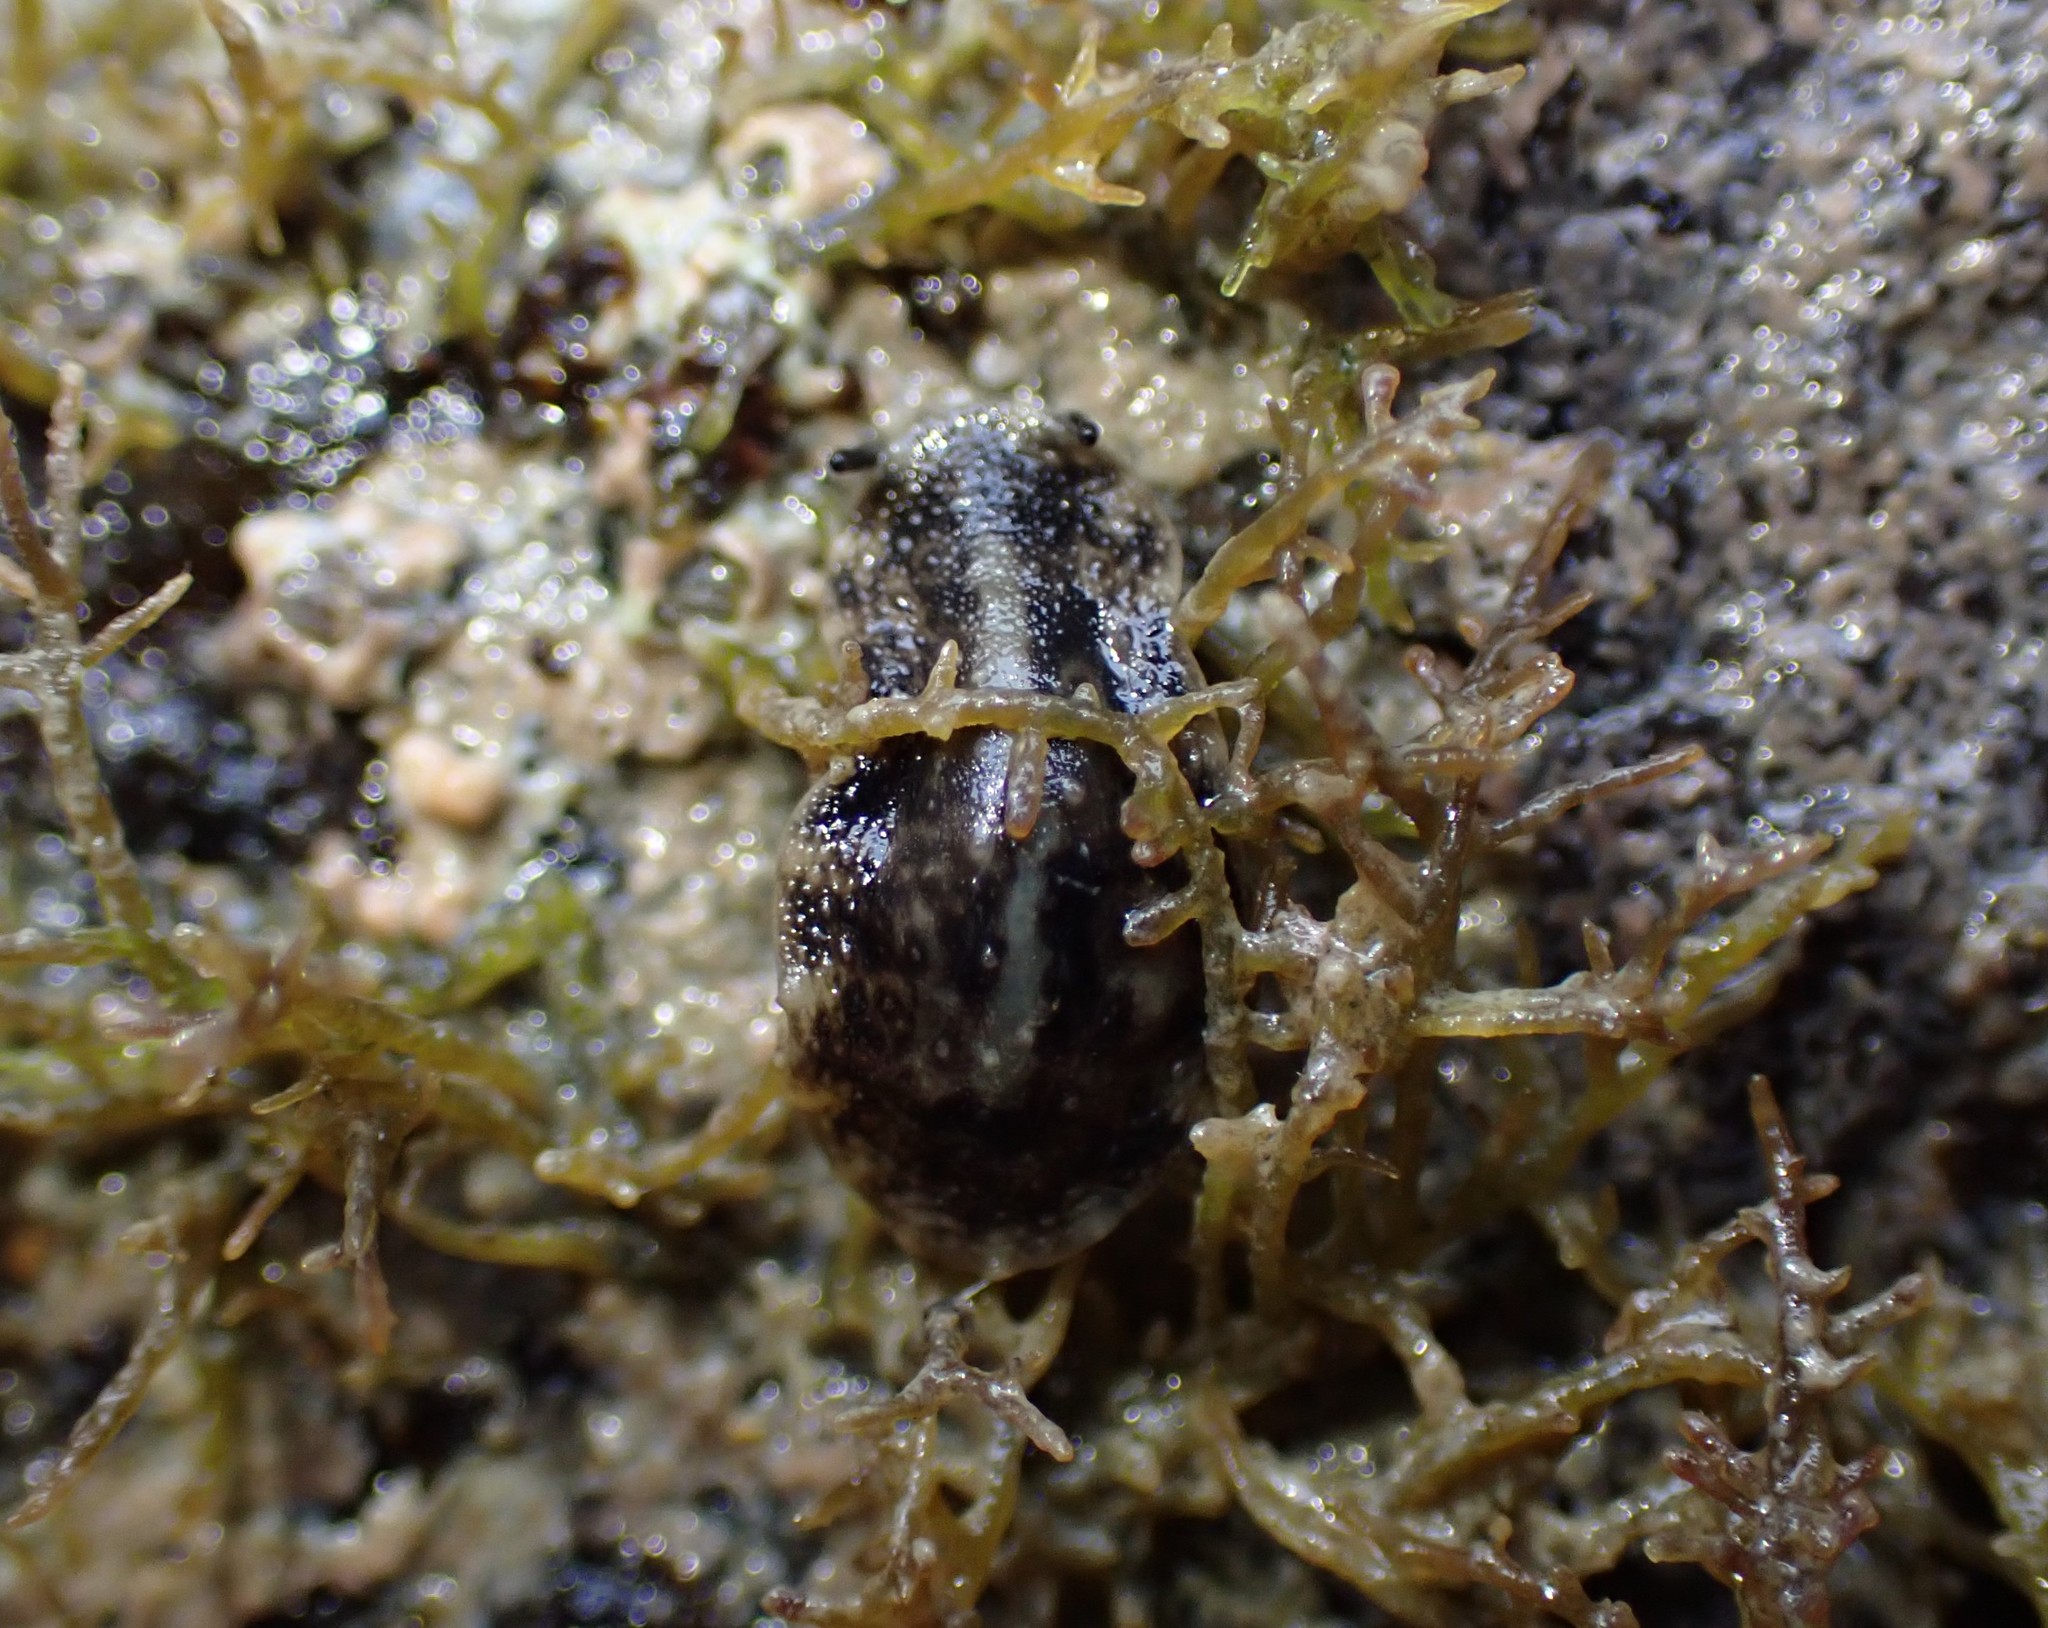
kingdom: Animalia
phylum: Mollusca
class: Gastropoda
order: Systellommatophora
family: Onchidiidae
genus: Onchidella
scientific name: Onchidella nigricans
